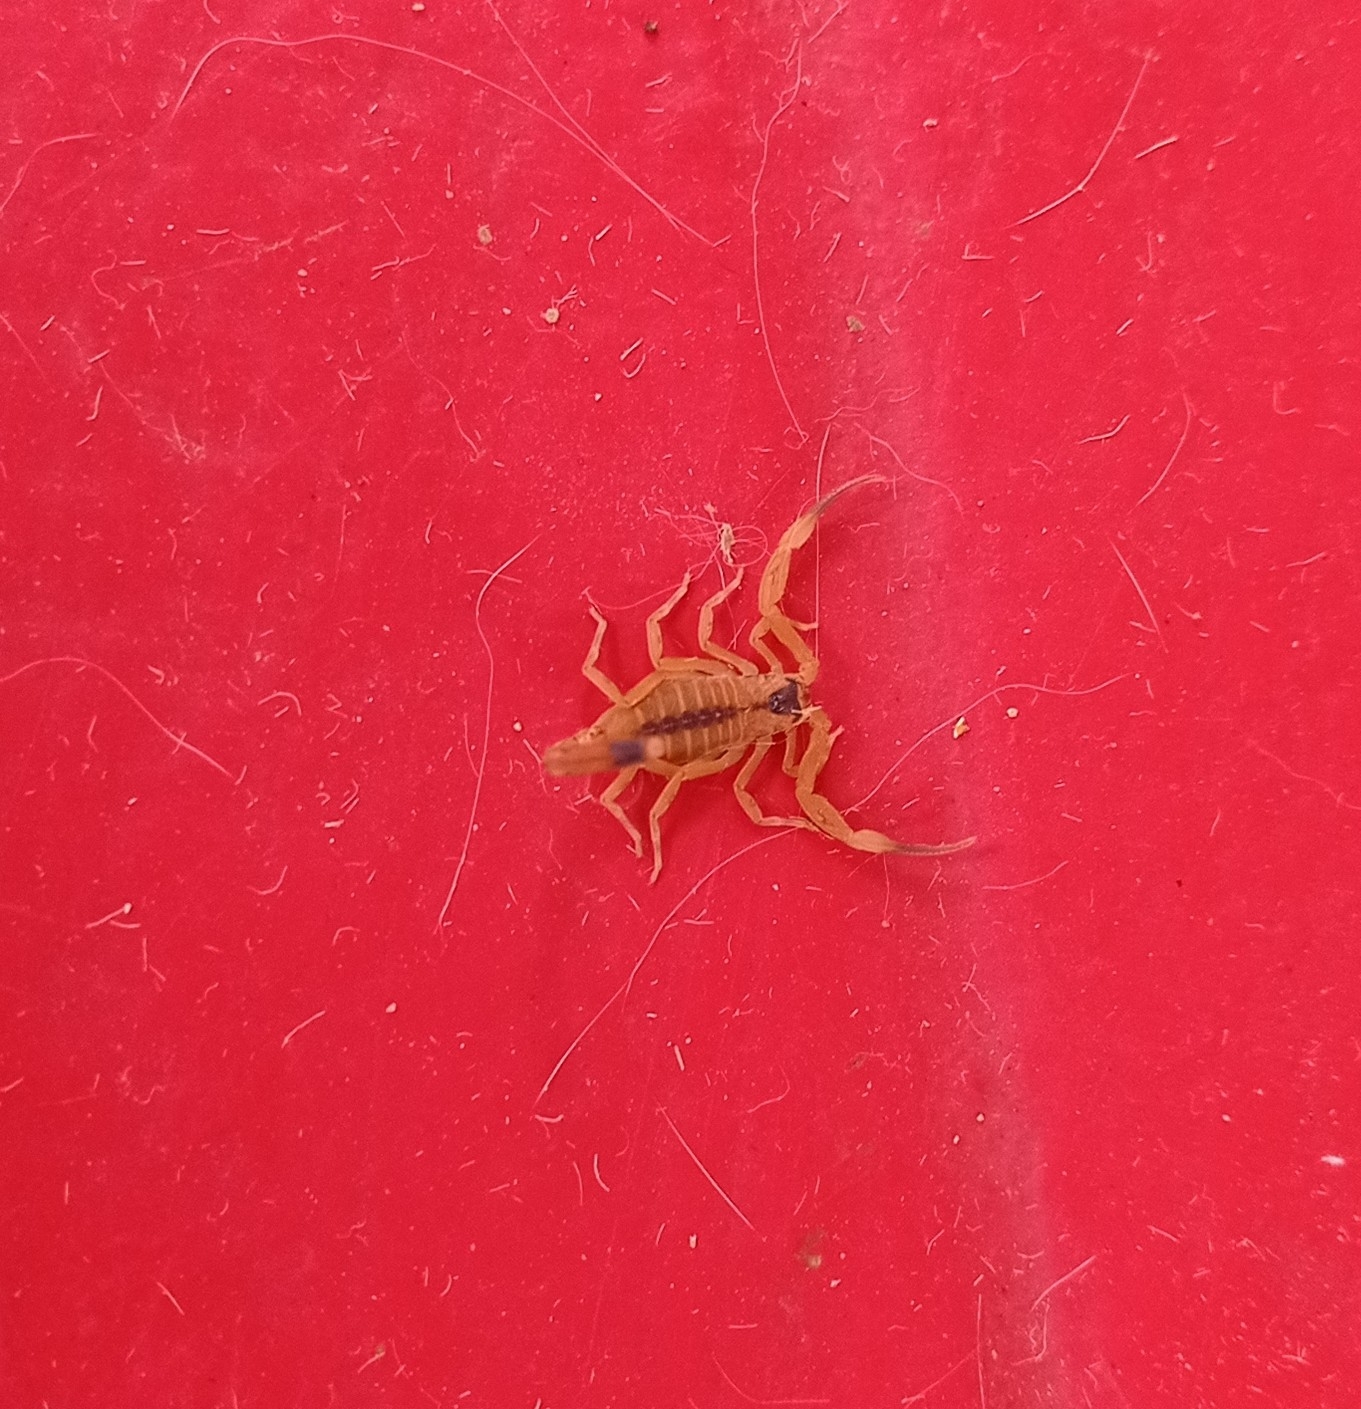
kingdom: Animalia
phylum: Arthropoda
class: Arachnida
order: Scorpiones
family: Buthidae
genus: Tityus
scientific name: Tityus stigmurus
